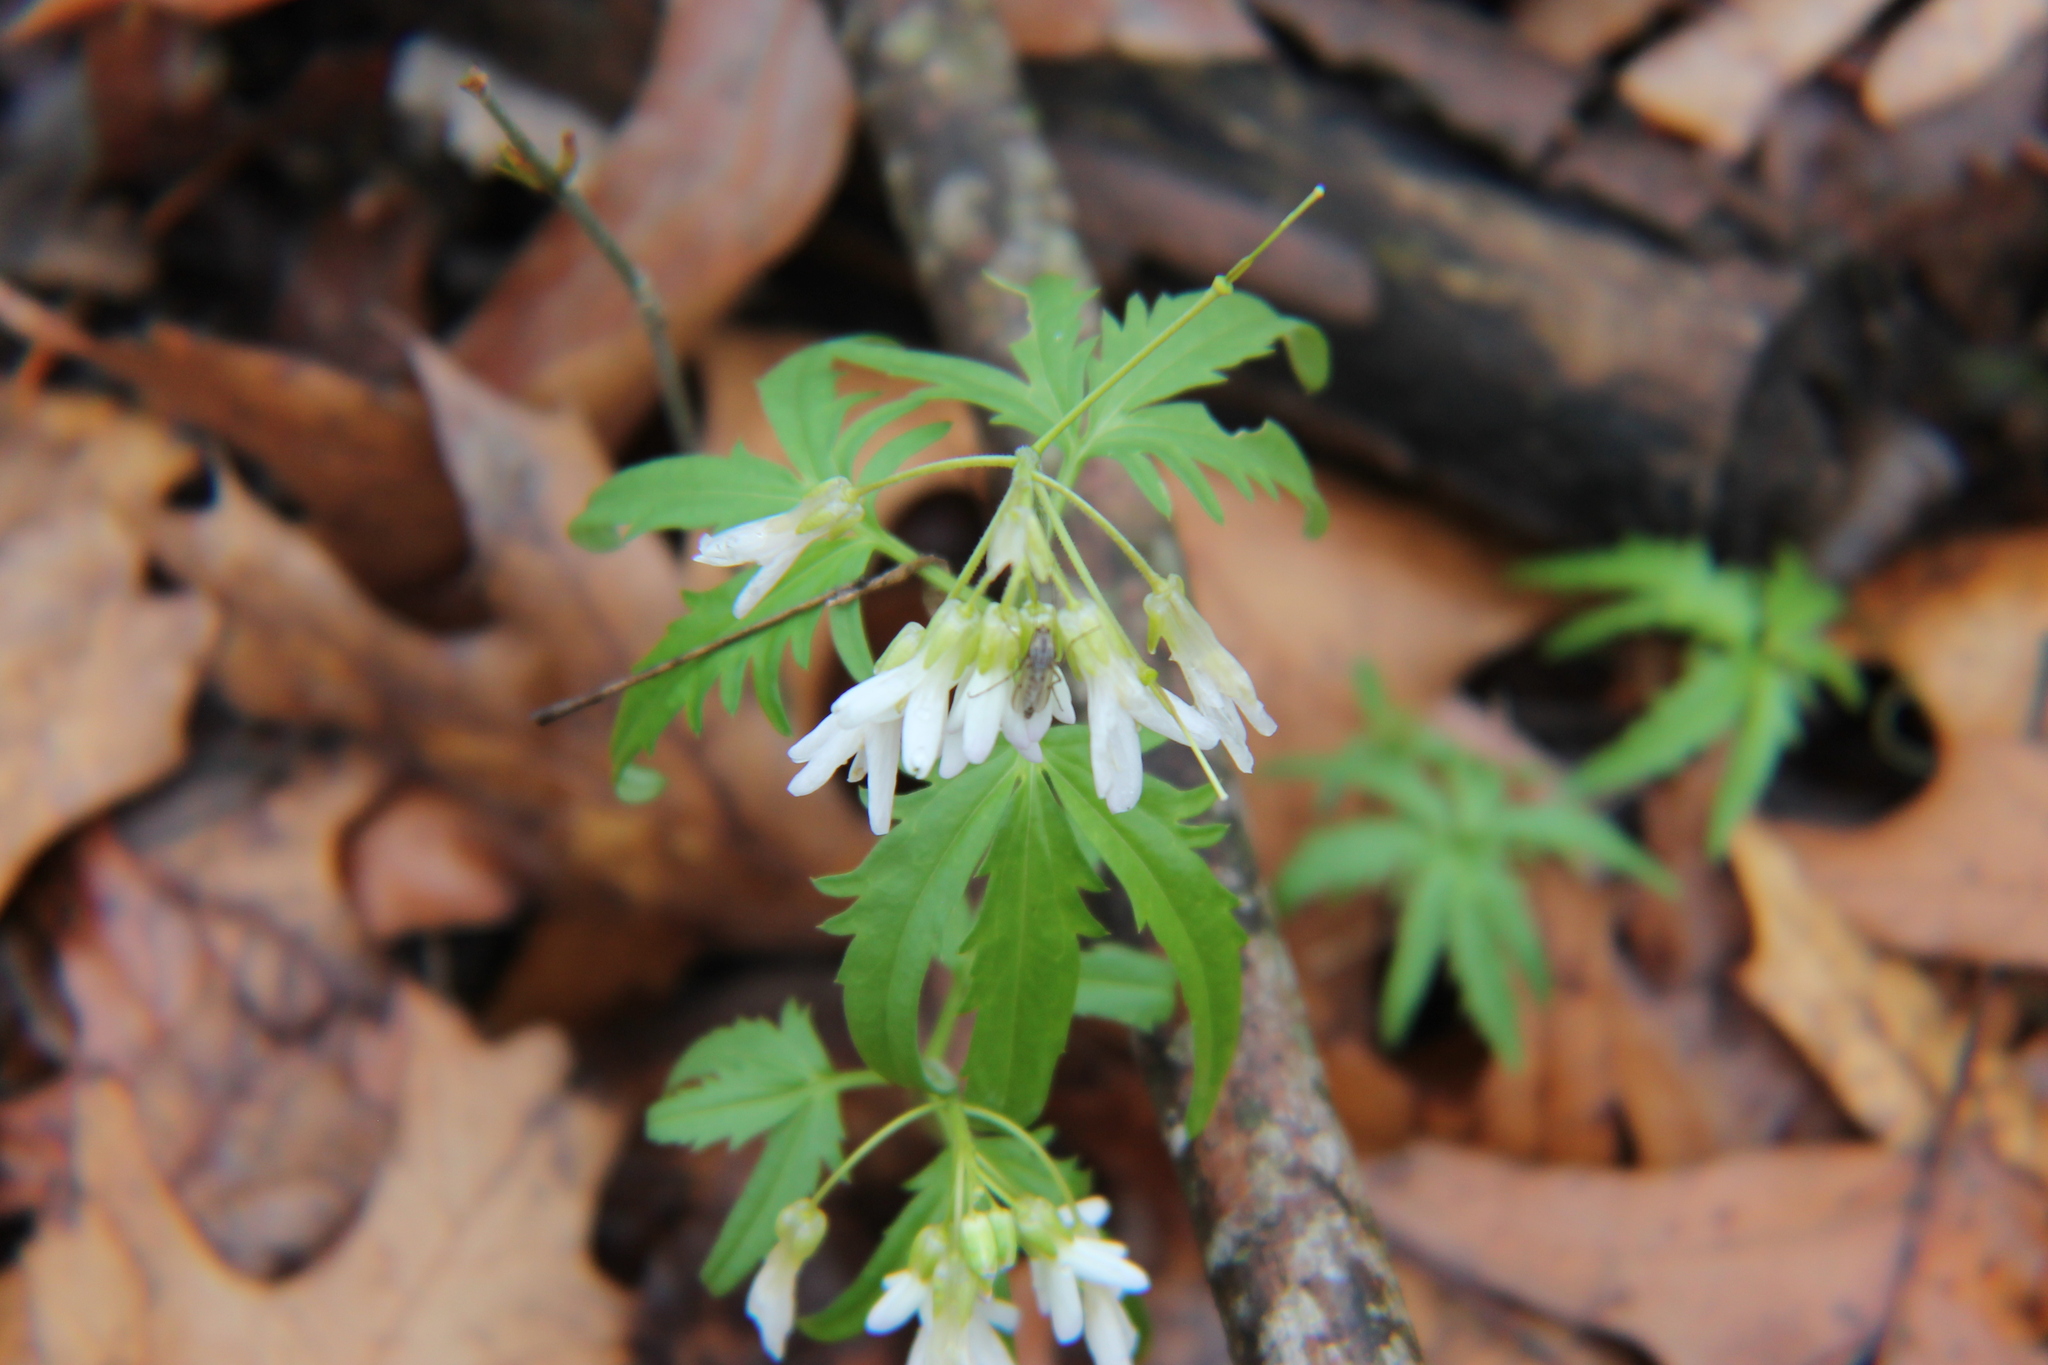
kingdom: Plantae
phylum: Tracheophyta
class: Magnoliopsida
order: Brassicales
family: Brassicaceae
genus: Cardamine
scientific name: Cardamine concatenata
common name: Cut-leaf toothcup
